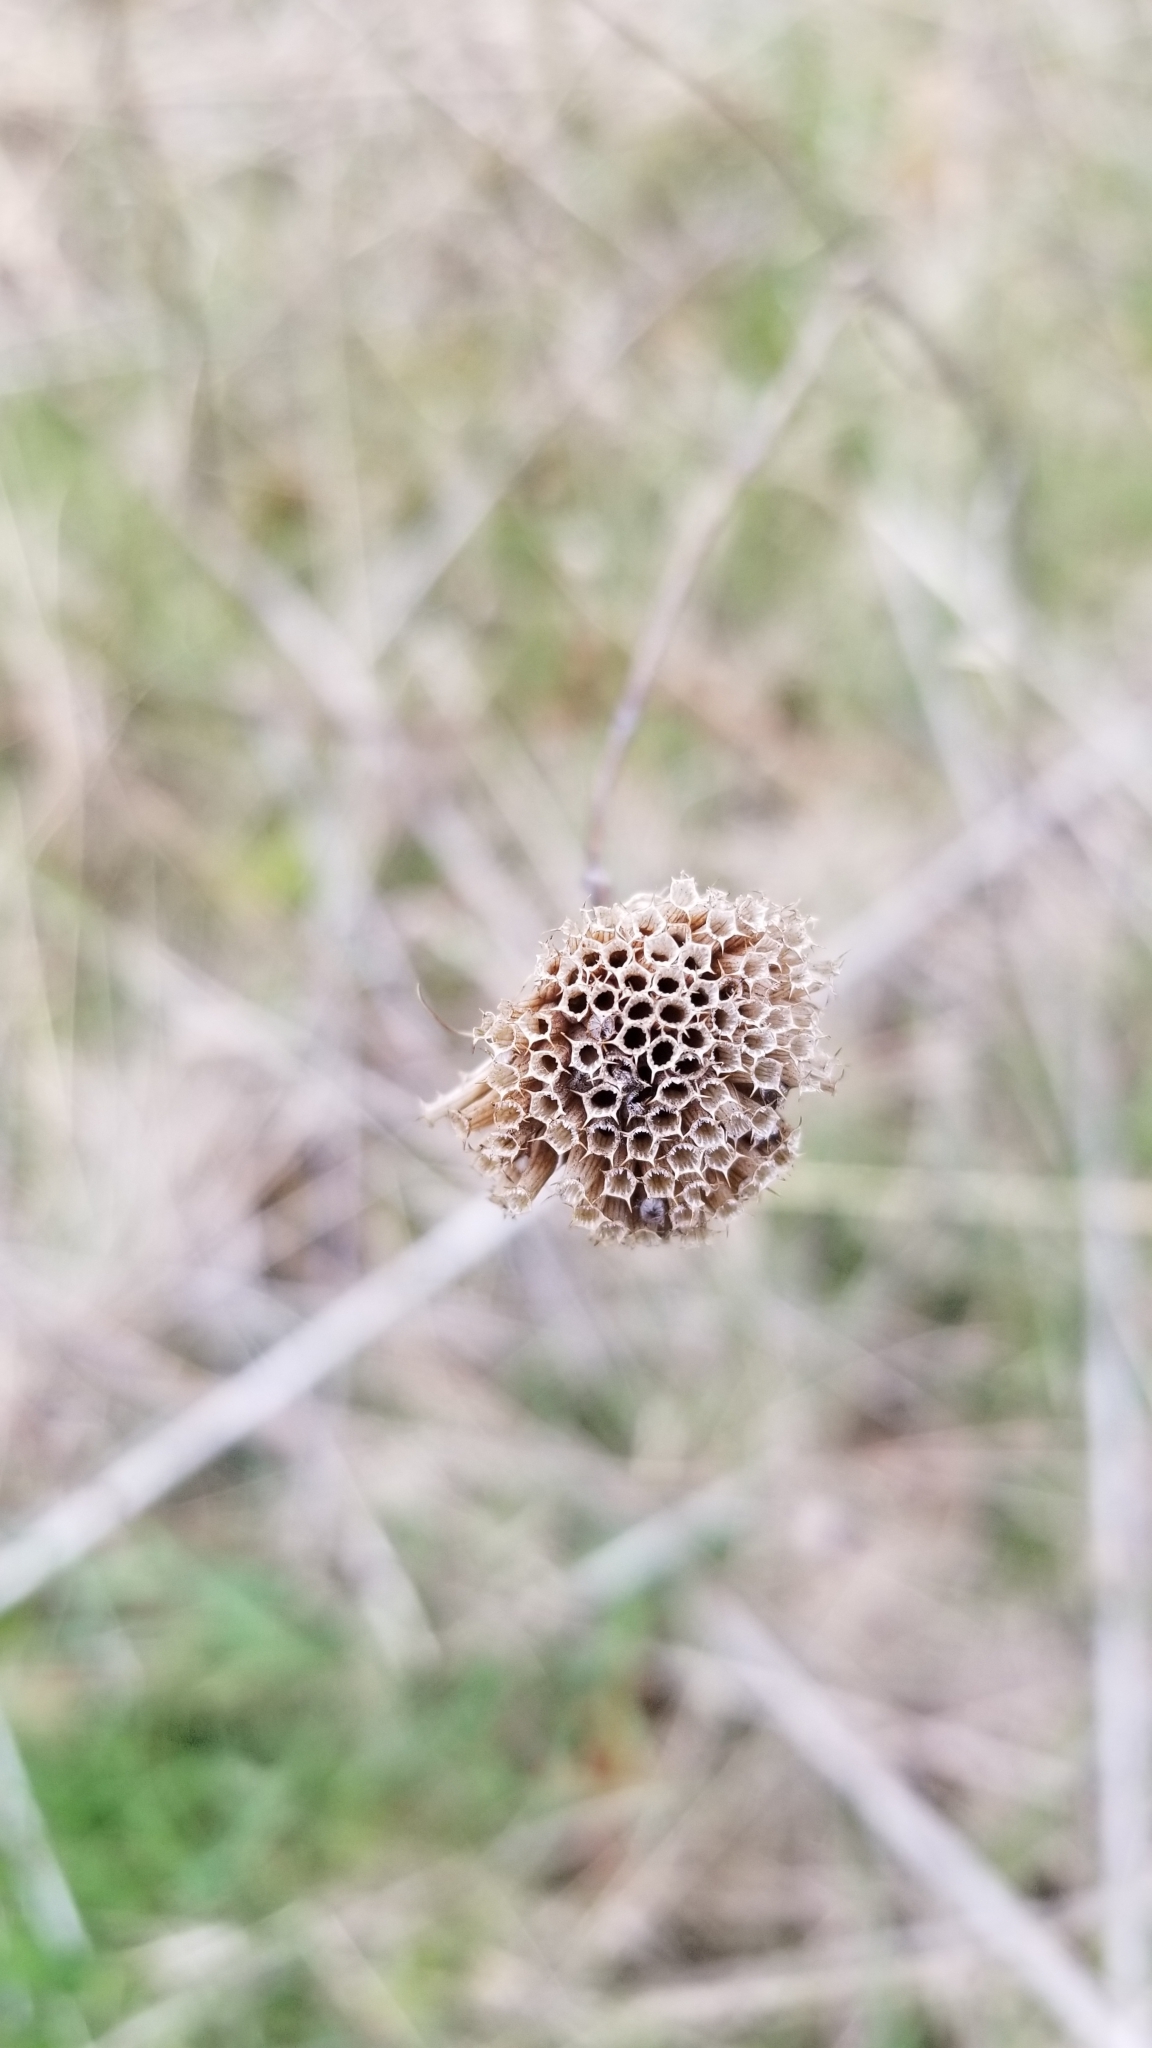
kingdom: Plantae
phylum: Tracheophyta
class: Magnoliopsida
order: Lamiales
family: Lamiaceae
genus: Monarda
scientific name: Monarda fistulosa
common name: Purple beebalm
